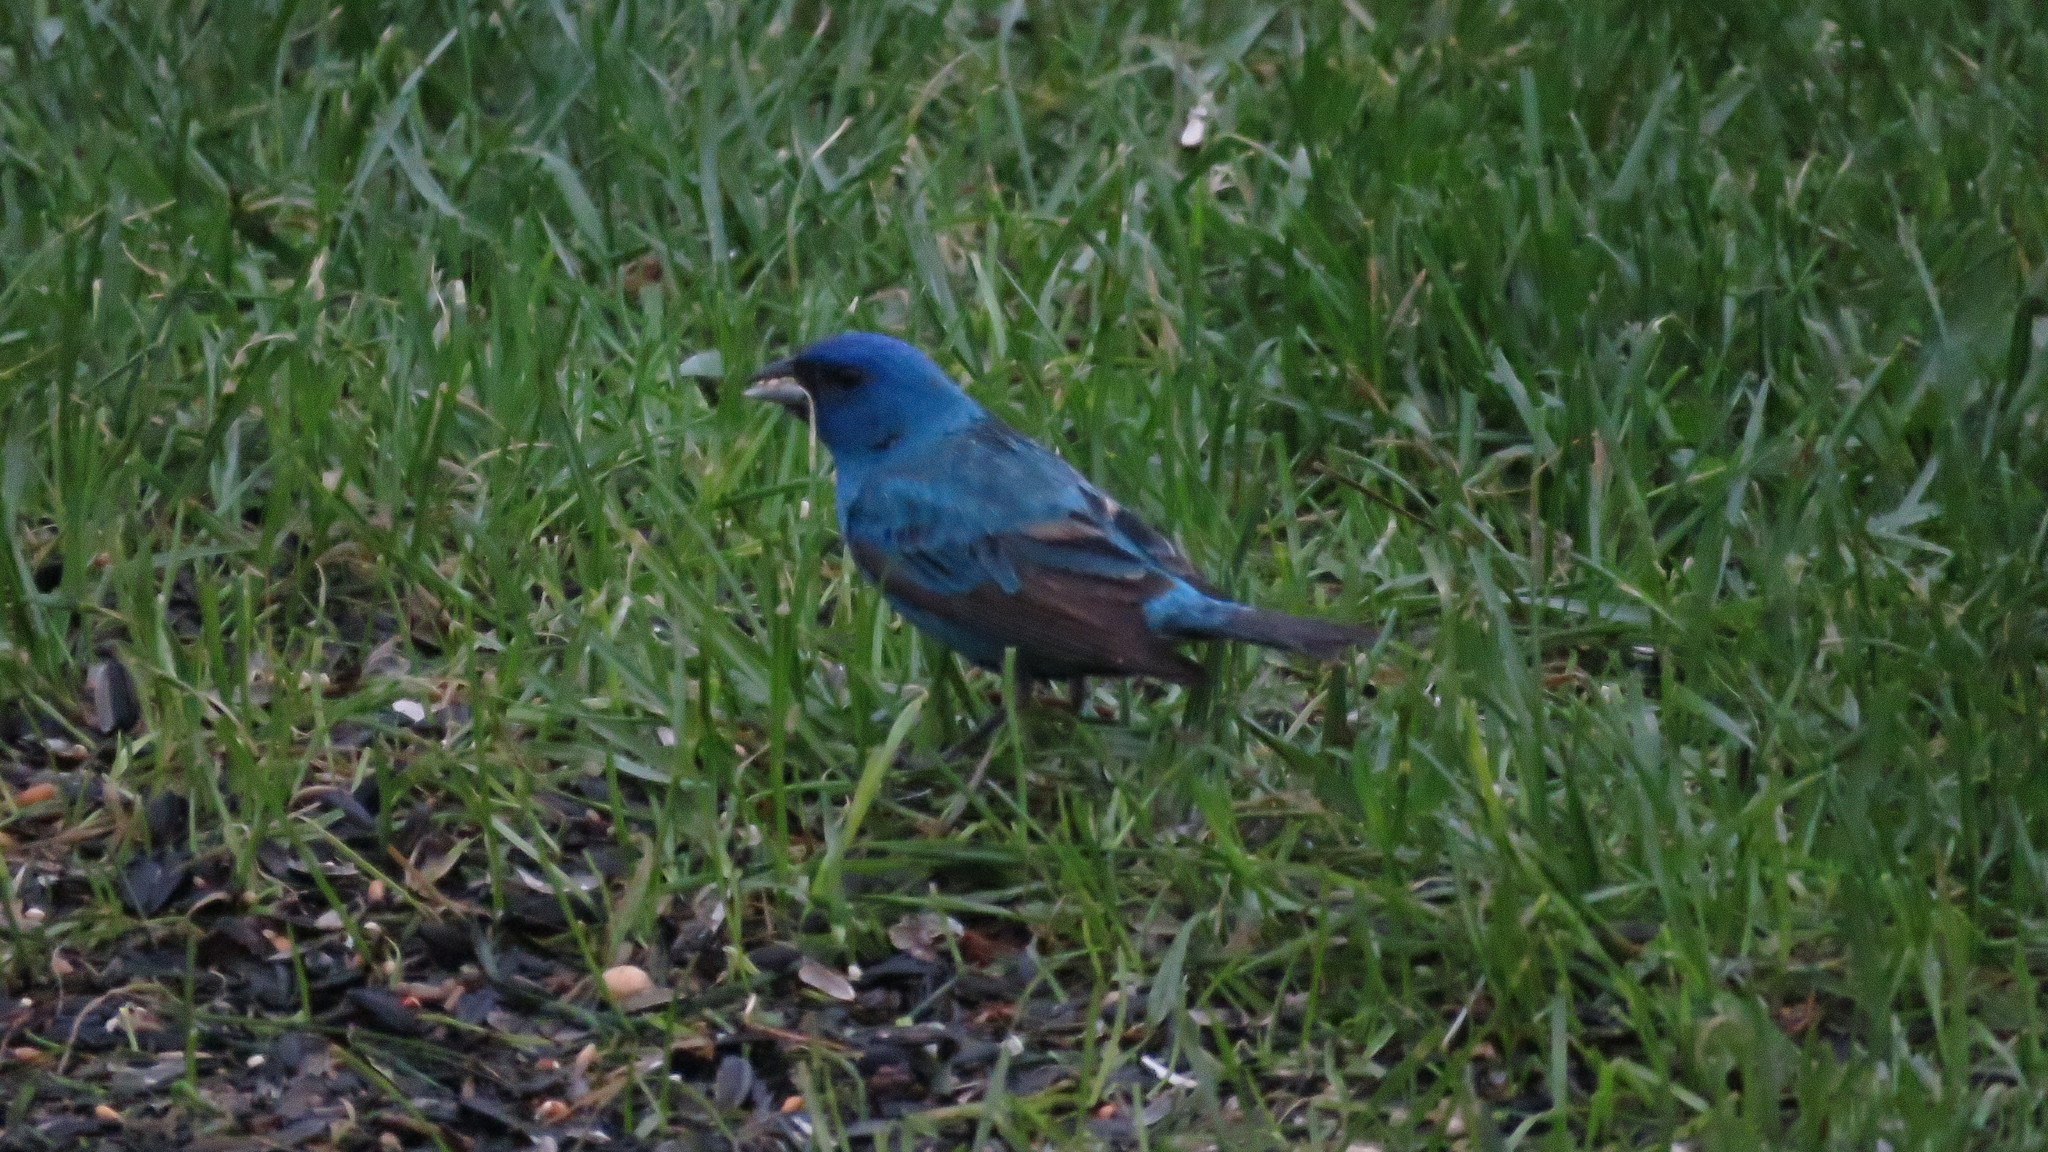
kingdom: Animalia
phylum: Chordata
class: Aves
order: Passeriformes
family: Cardinalidae
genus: Passerina
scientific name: Passerina cyanea
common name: Indigo bunting
